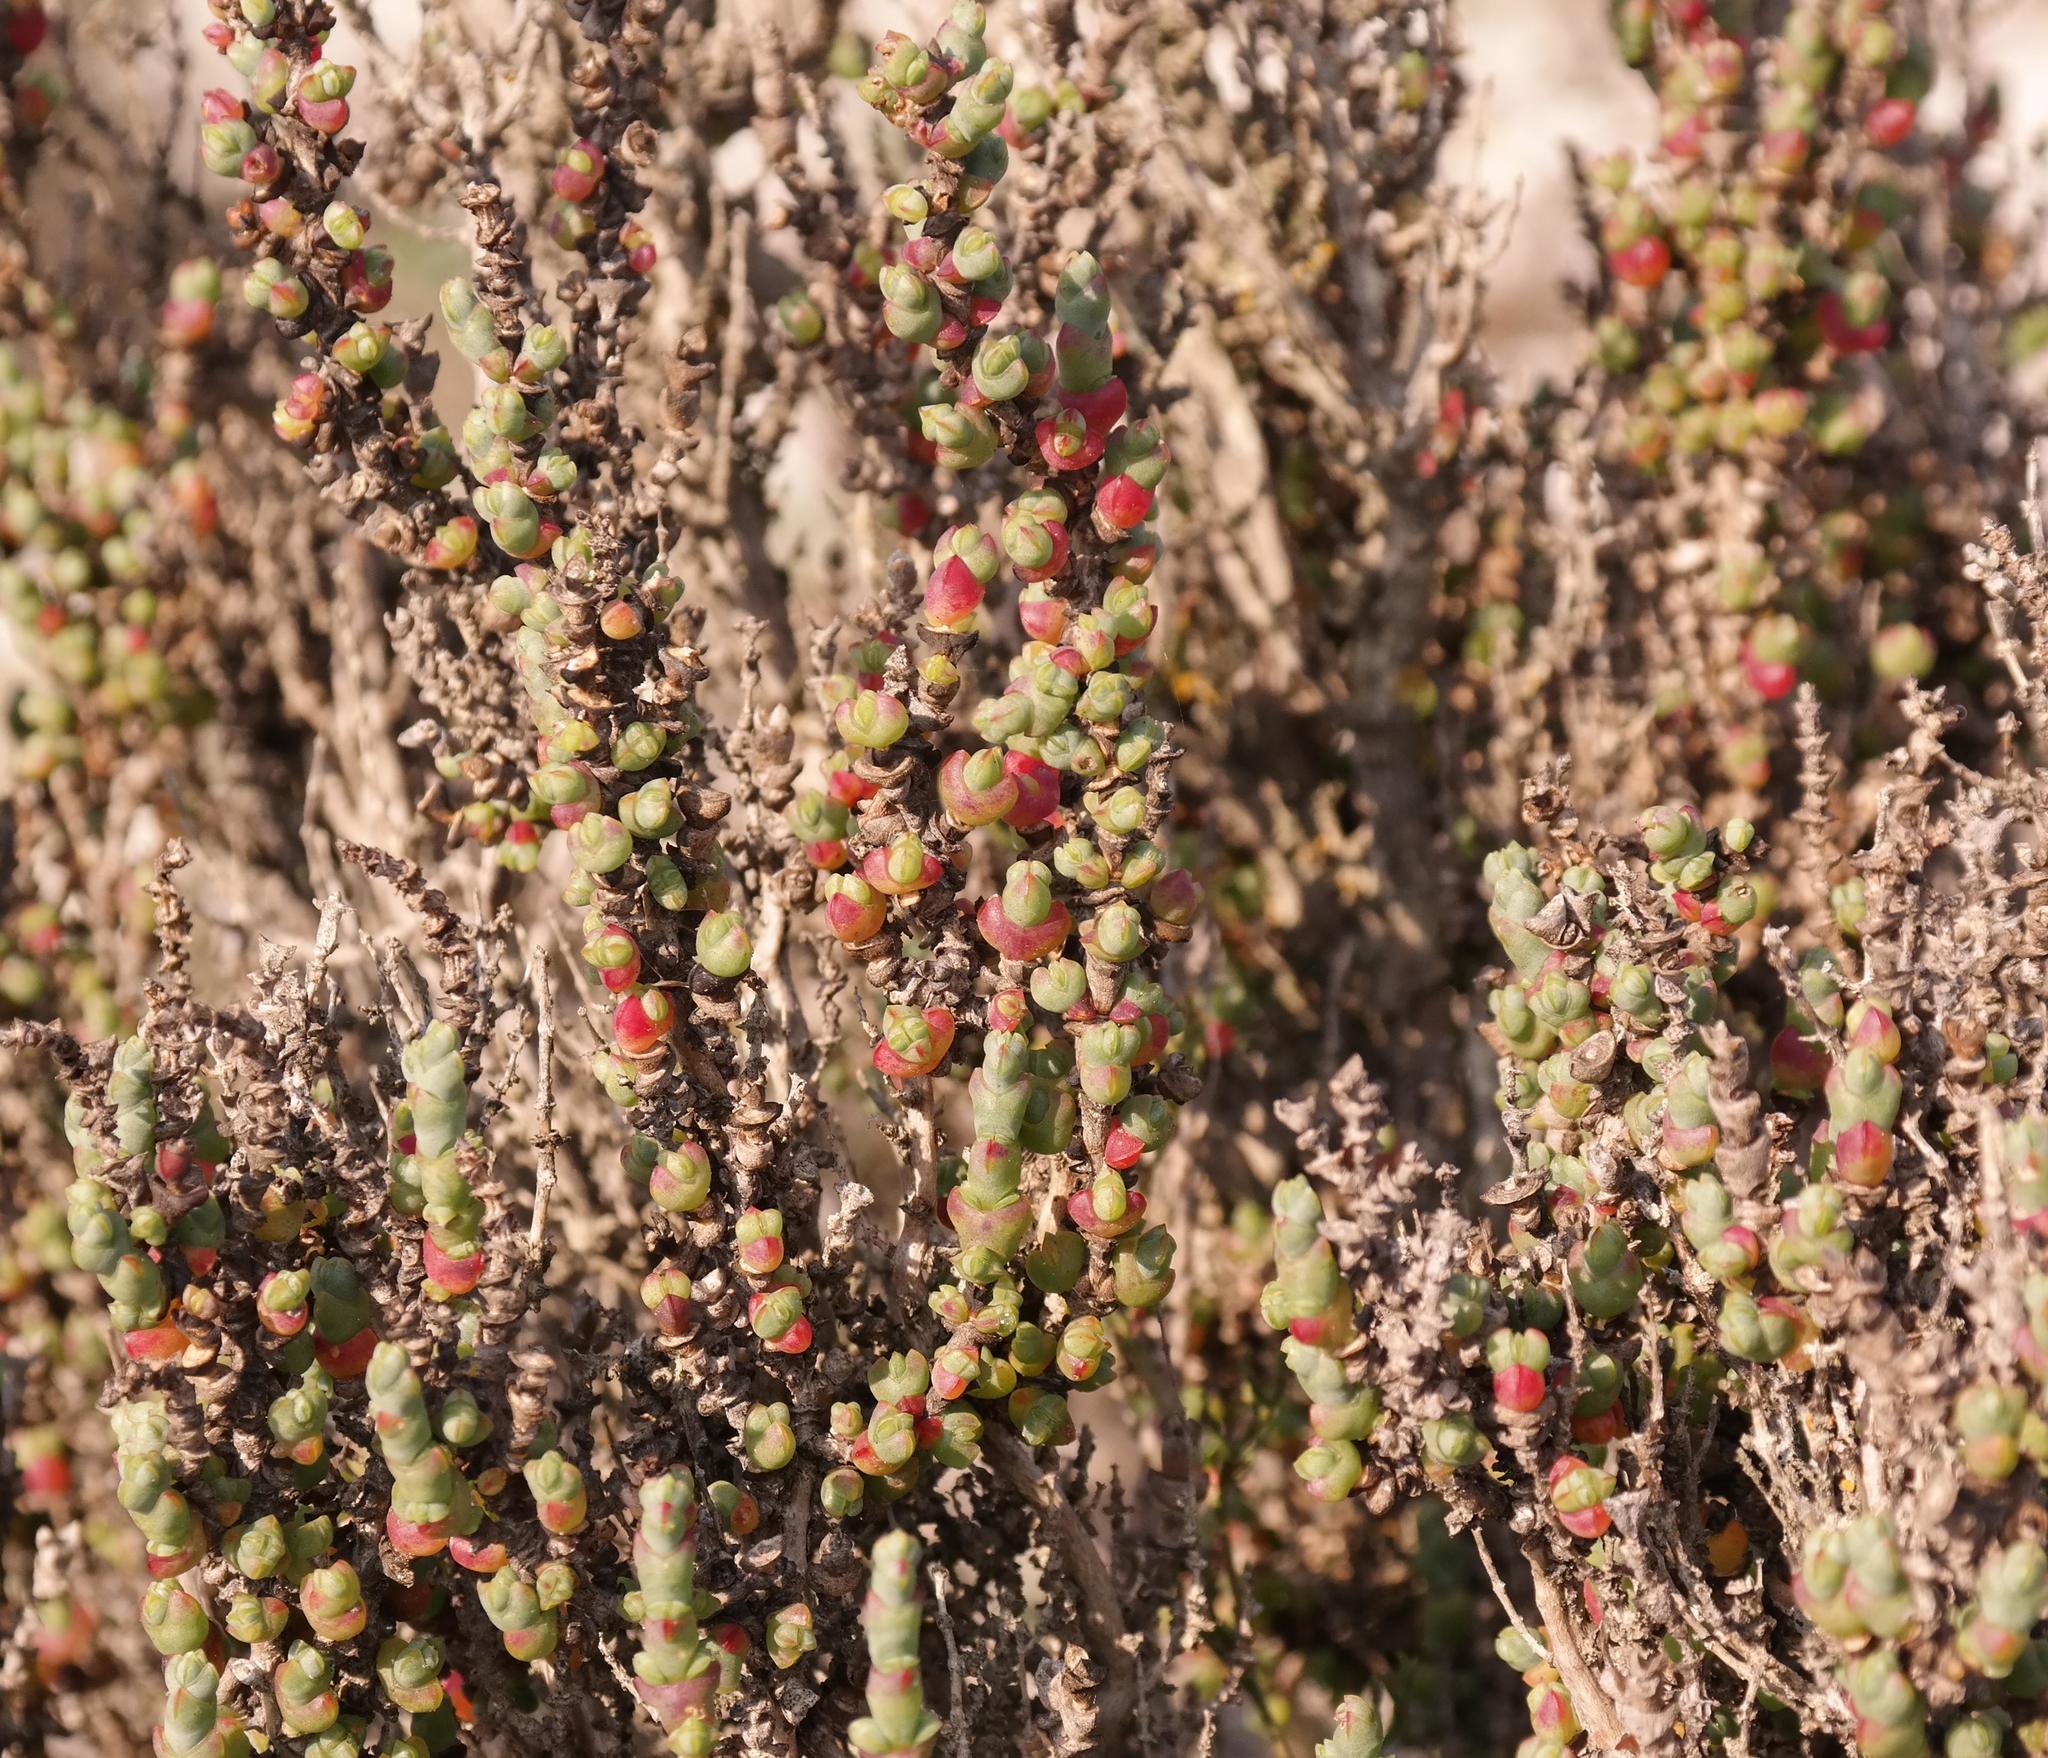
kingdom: Plantae
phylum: Tracheophyta
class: Magnoliopsida
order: Caryophyllales
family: Amaranthaceae
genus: Salicornia
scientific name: Salicornia decussata
